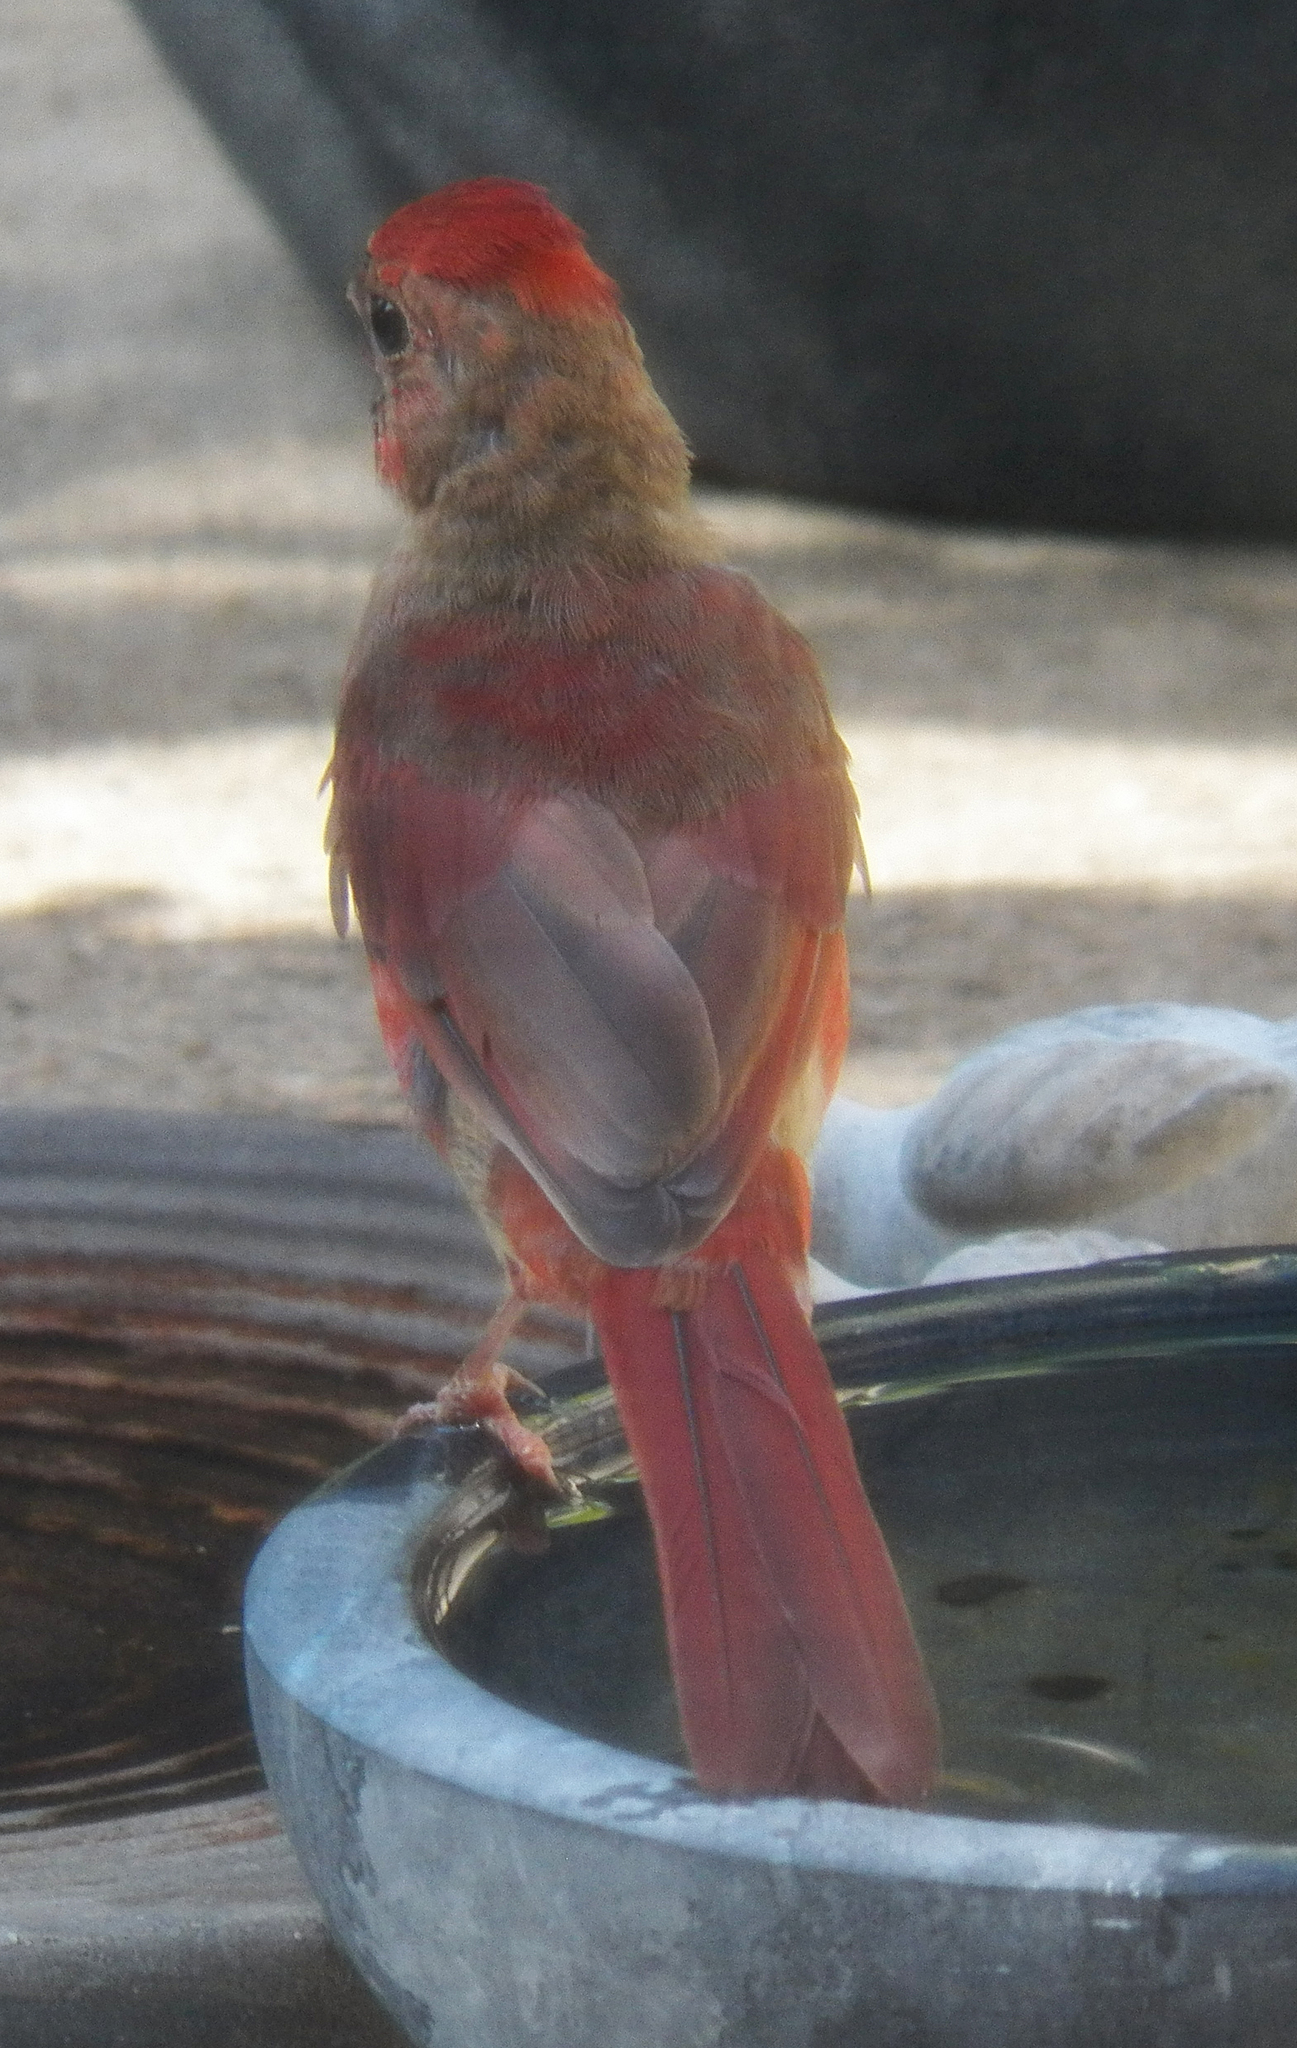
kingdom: Animalia
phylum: Chordata
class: Aves
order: Passeriformes
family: Cardinalidae
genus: Cardinalis
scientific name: Cardinalis cardinalis
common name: Northern cardinal
